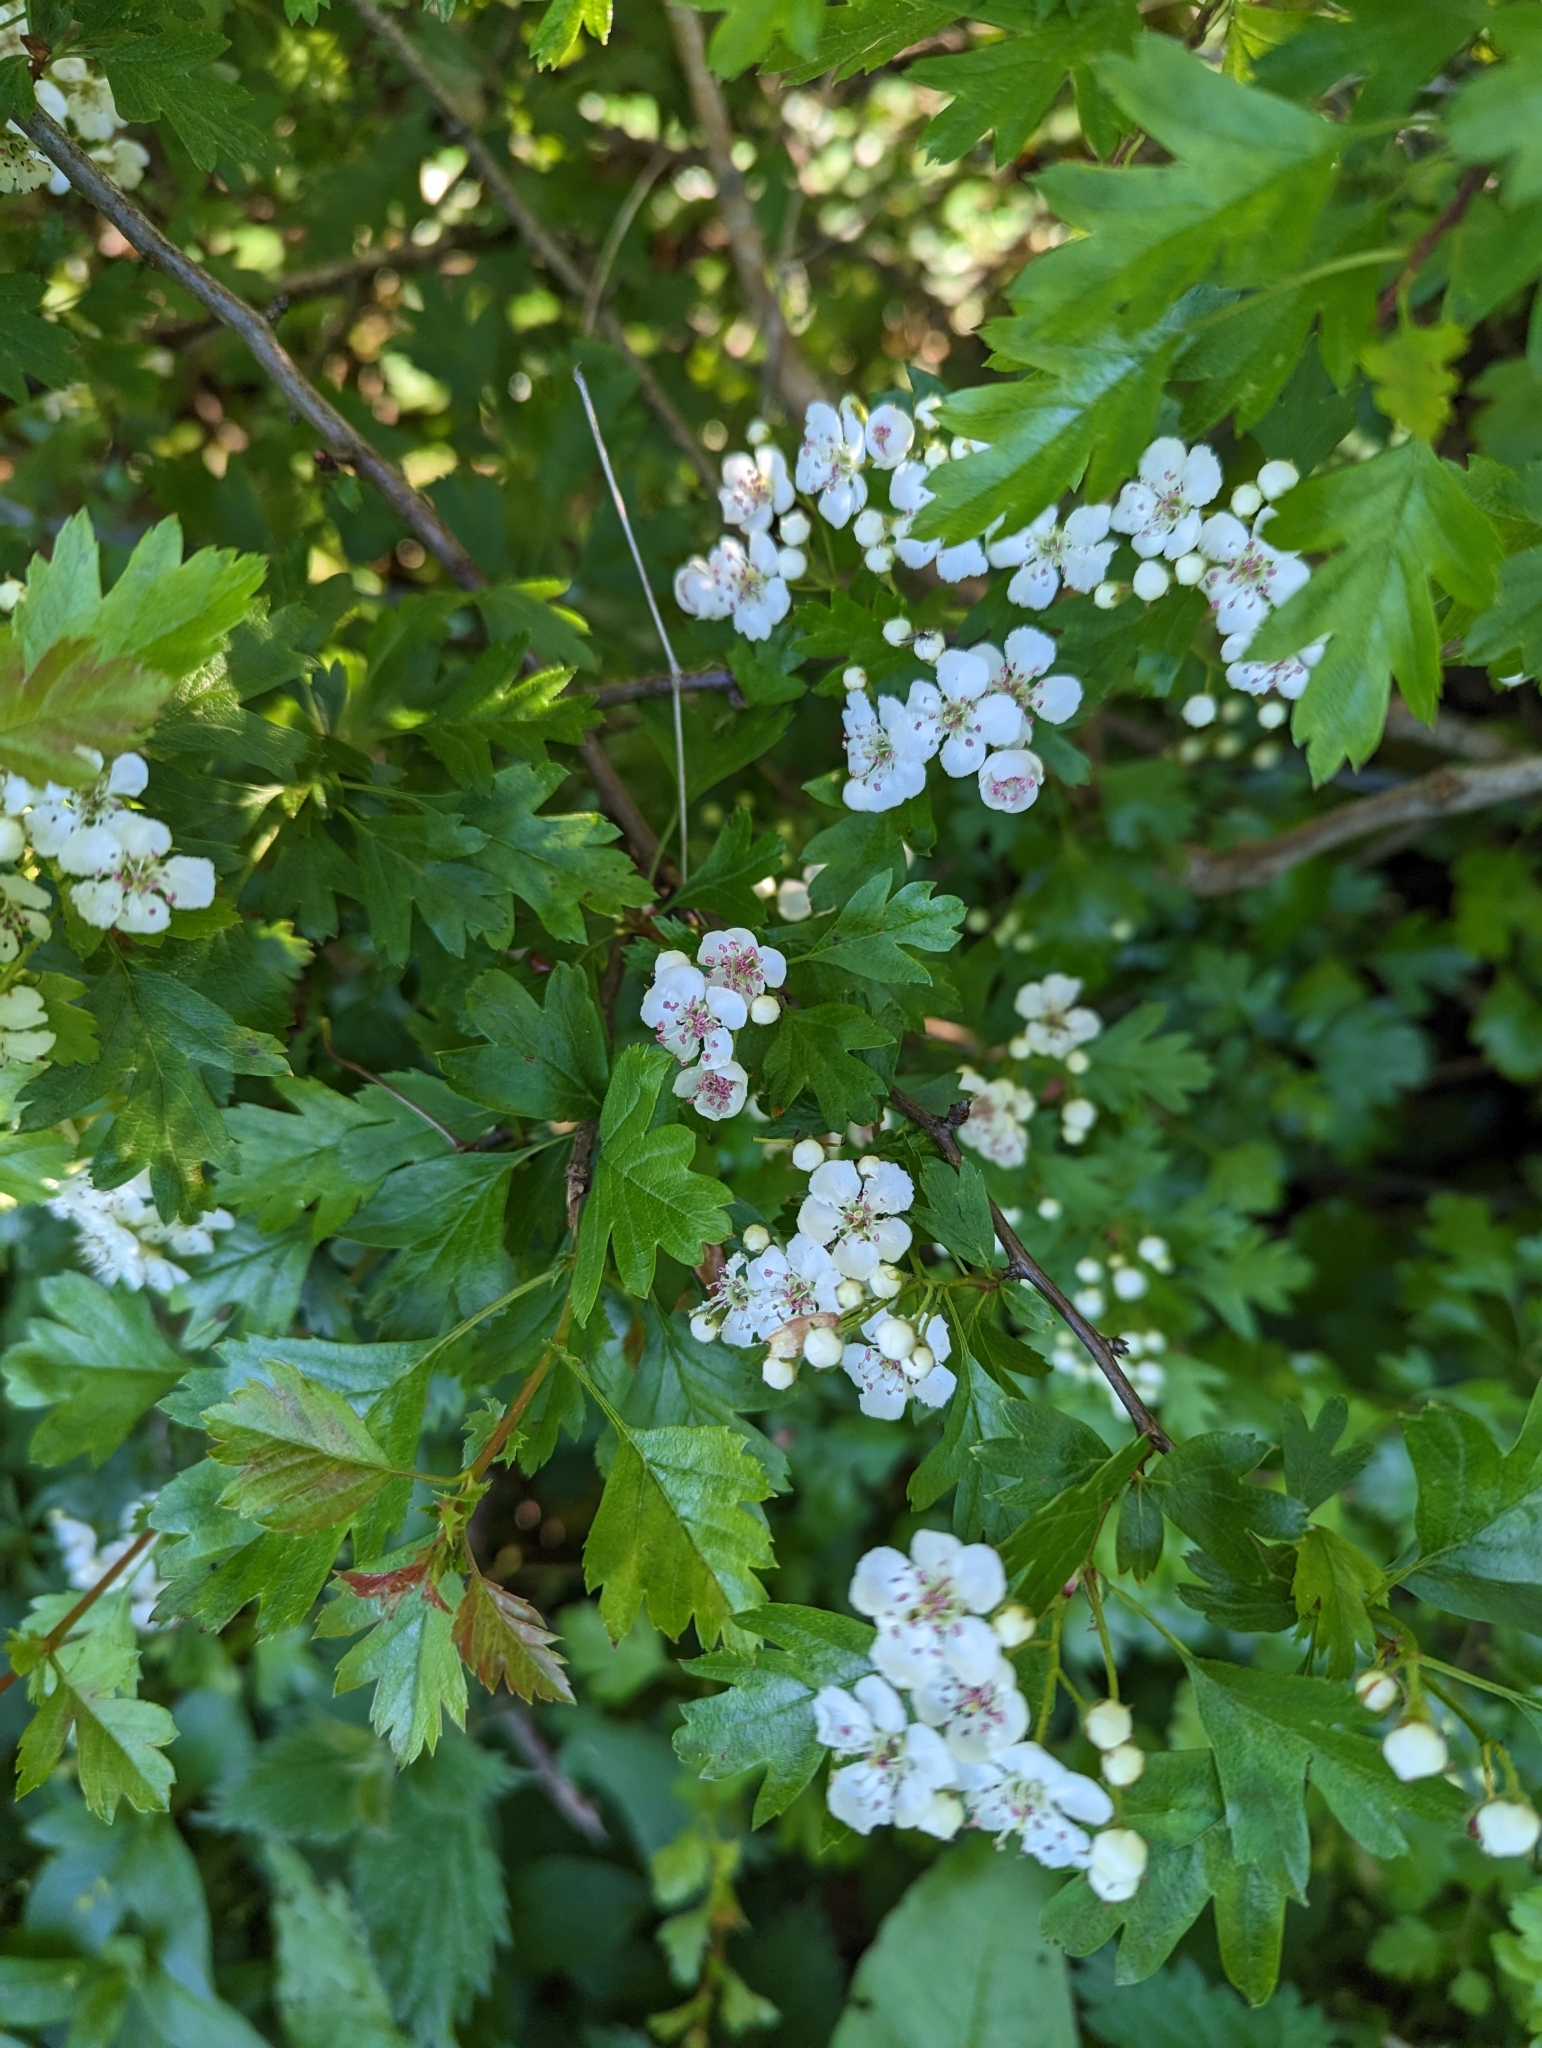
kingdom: Plantae
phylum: Tracheophyta
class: Magnoliopsida
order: Rosales
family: Rosaceae
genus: Crataegus
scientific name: Crataegus monogyna
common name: Hawthorn
